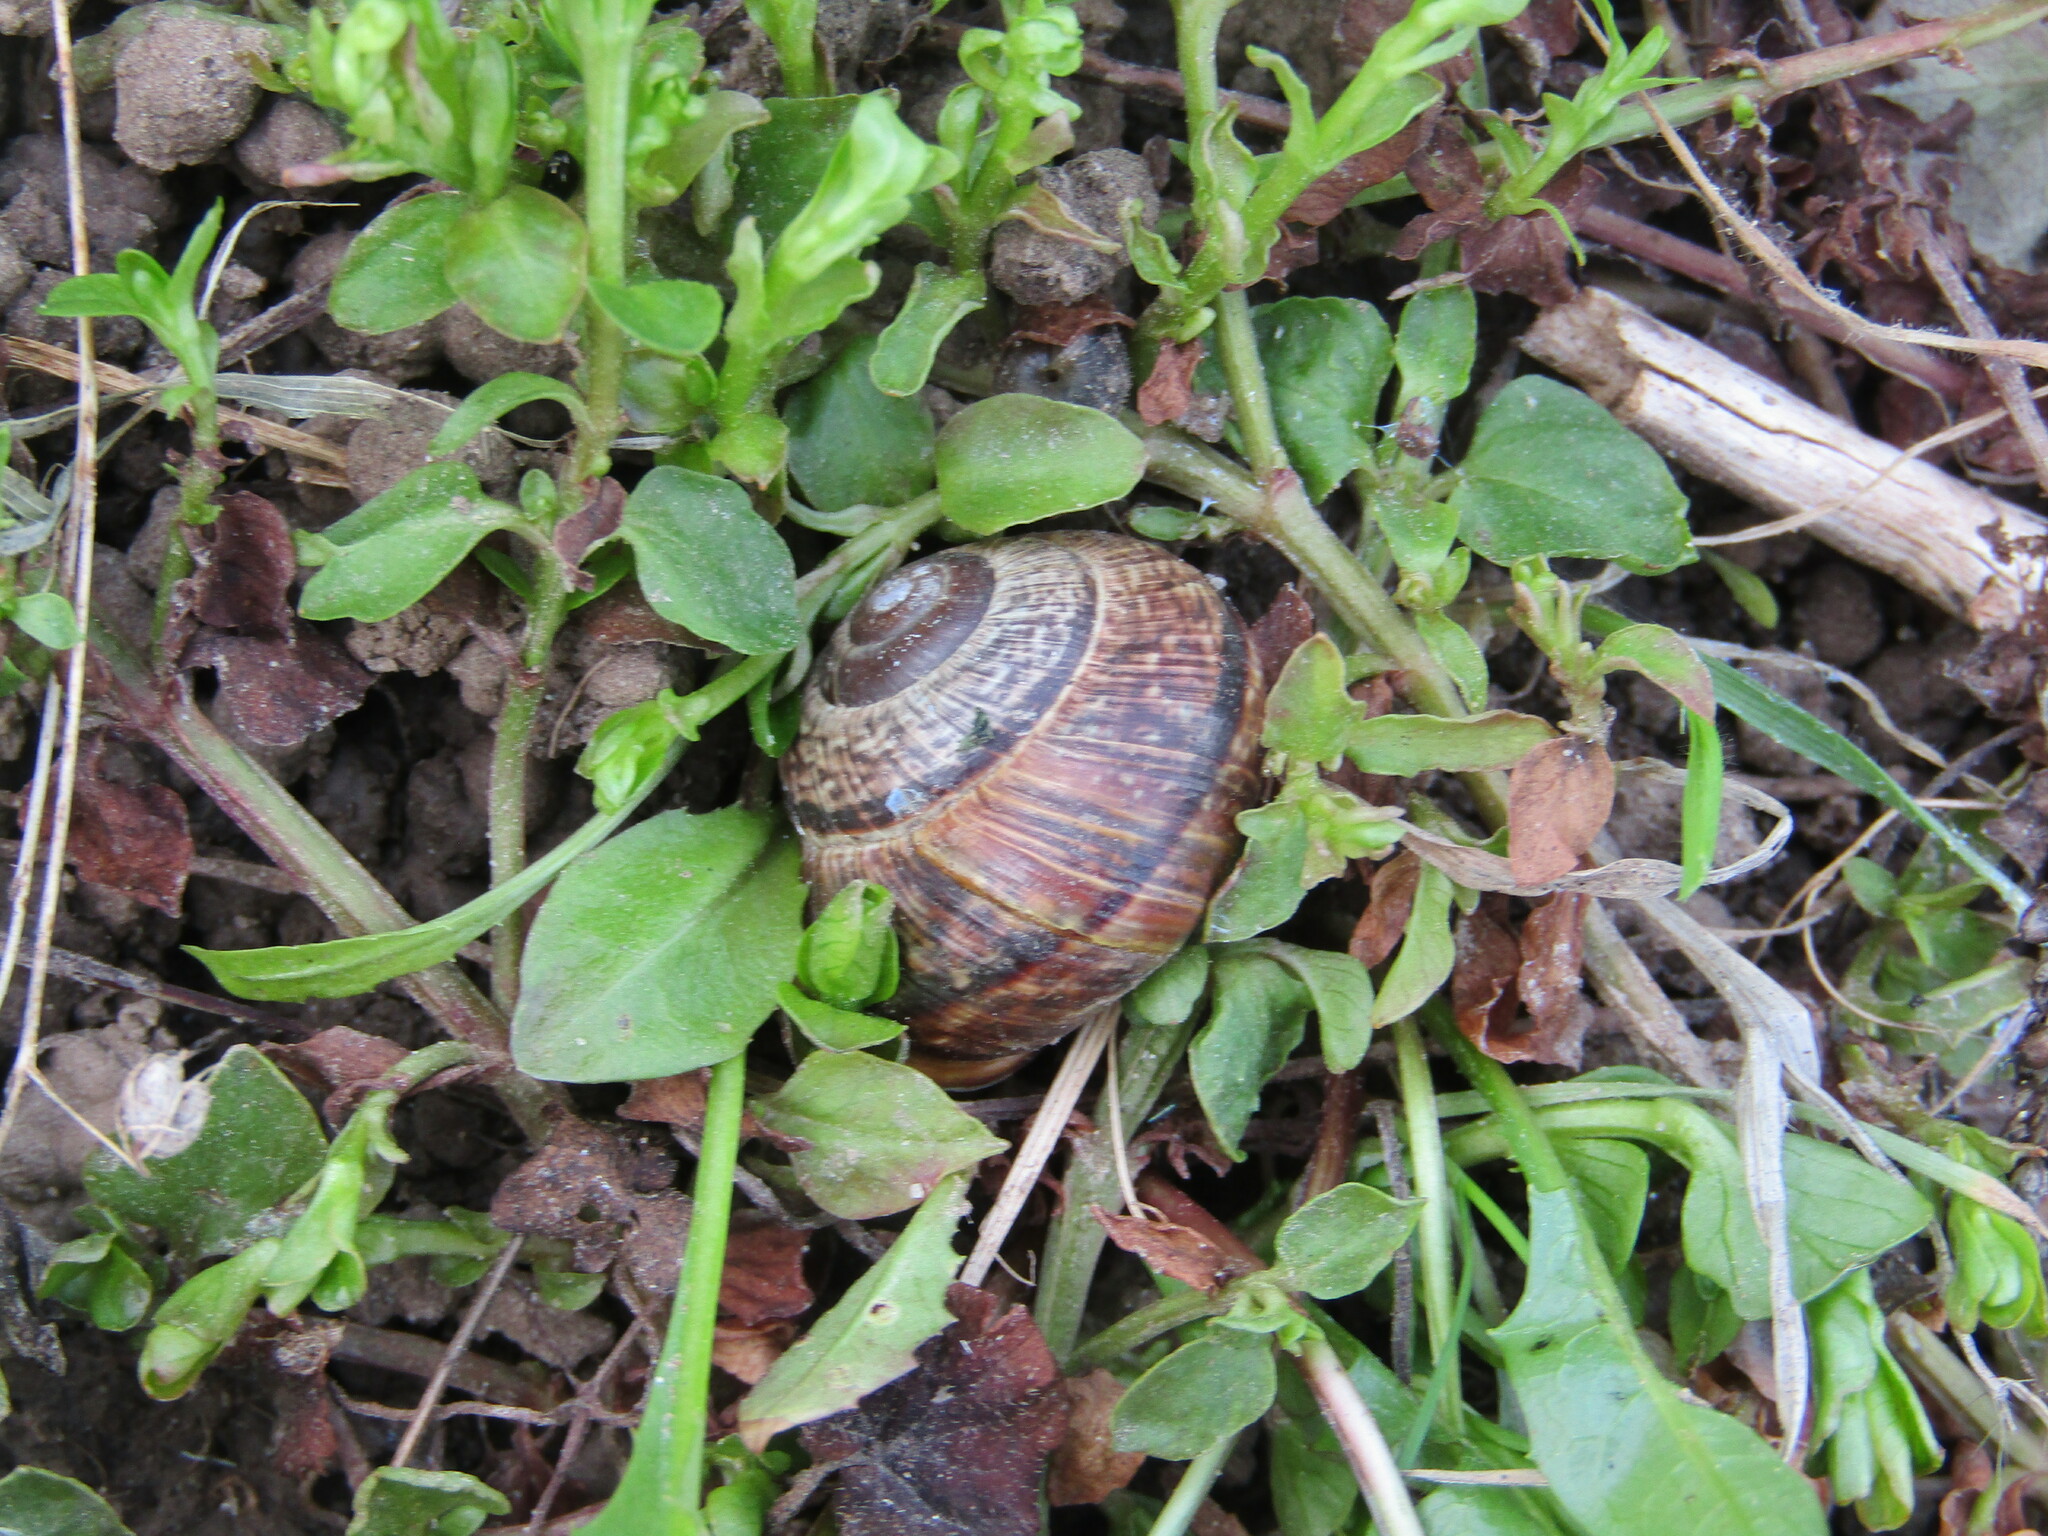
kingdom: Animalia
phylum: Mollusca
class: Gastropoda
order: Stylommatophora
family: Helicidae
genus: Arianta
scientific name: Arianta arbustorum
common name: Copse snail
